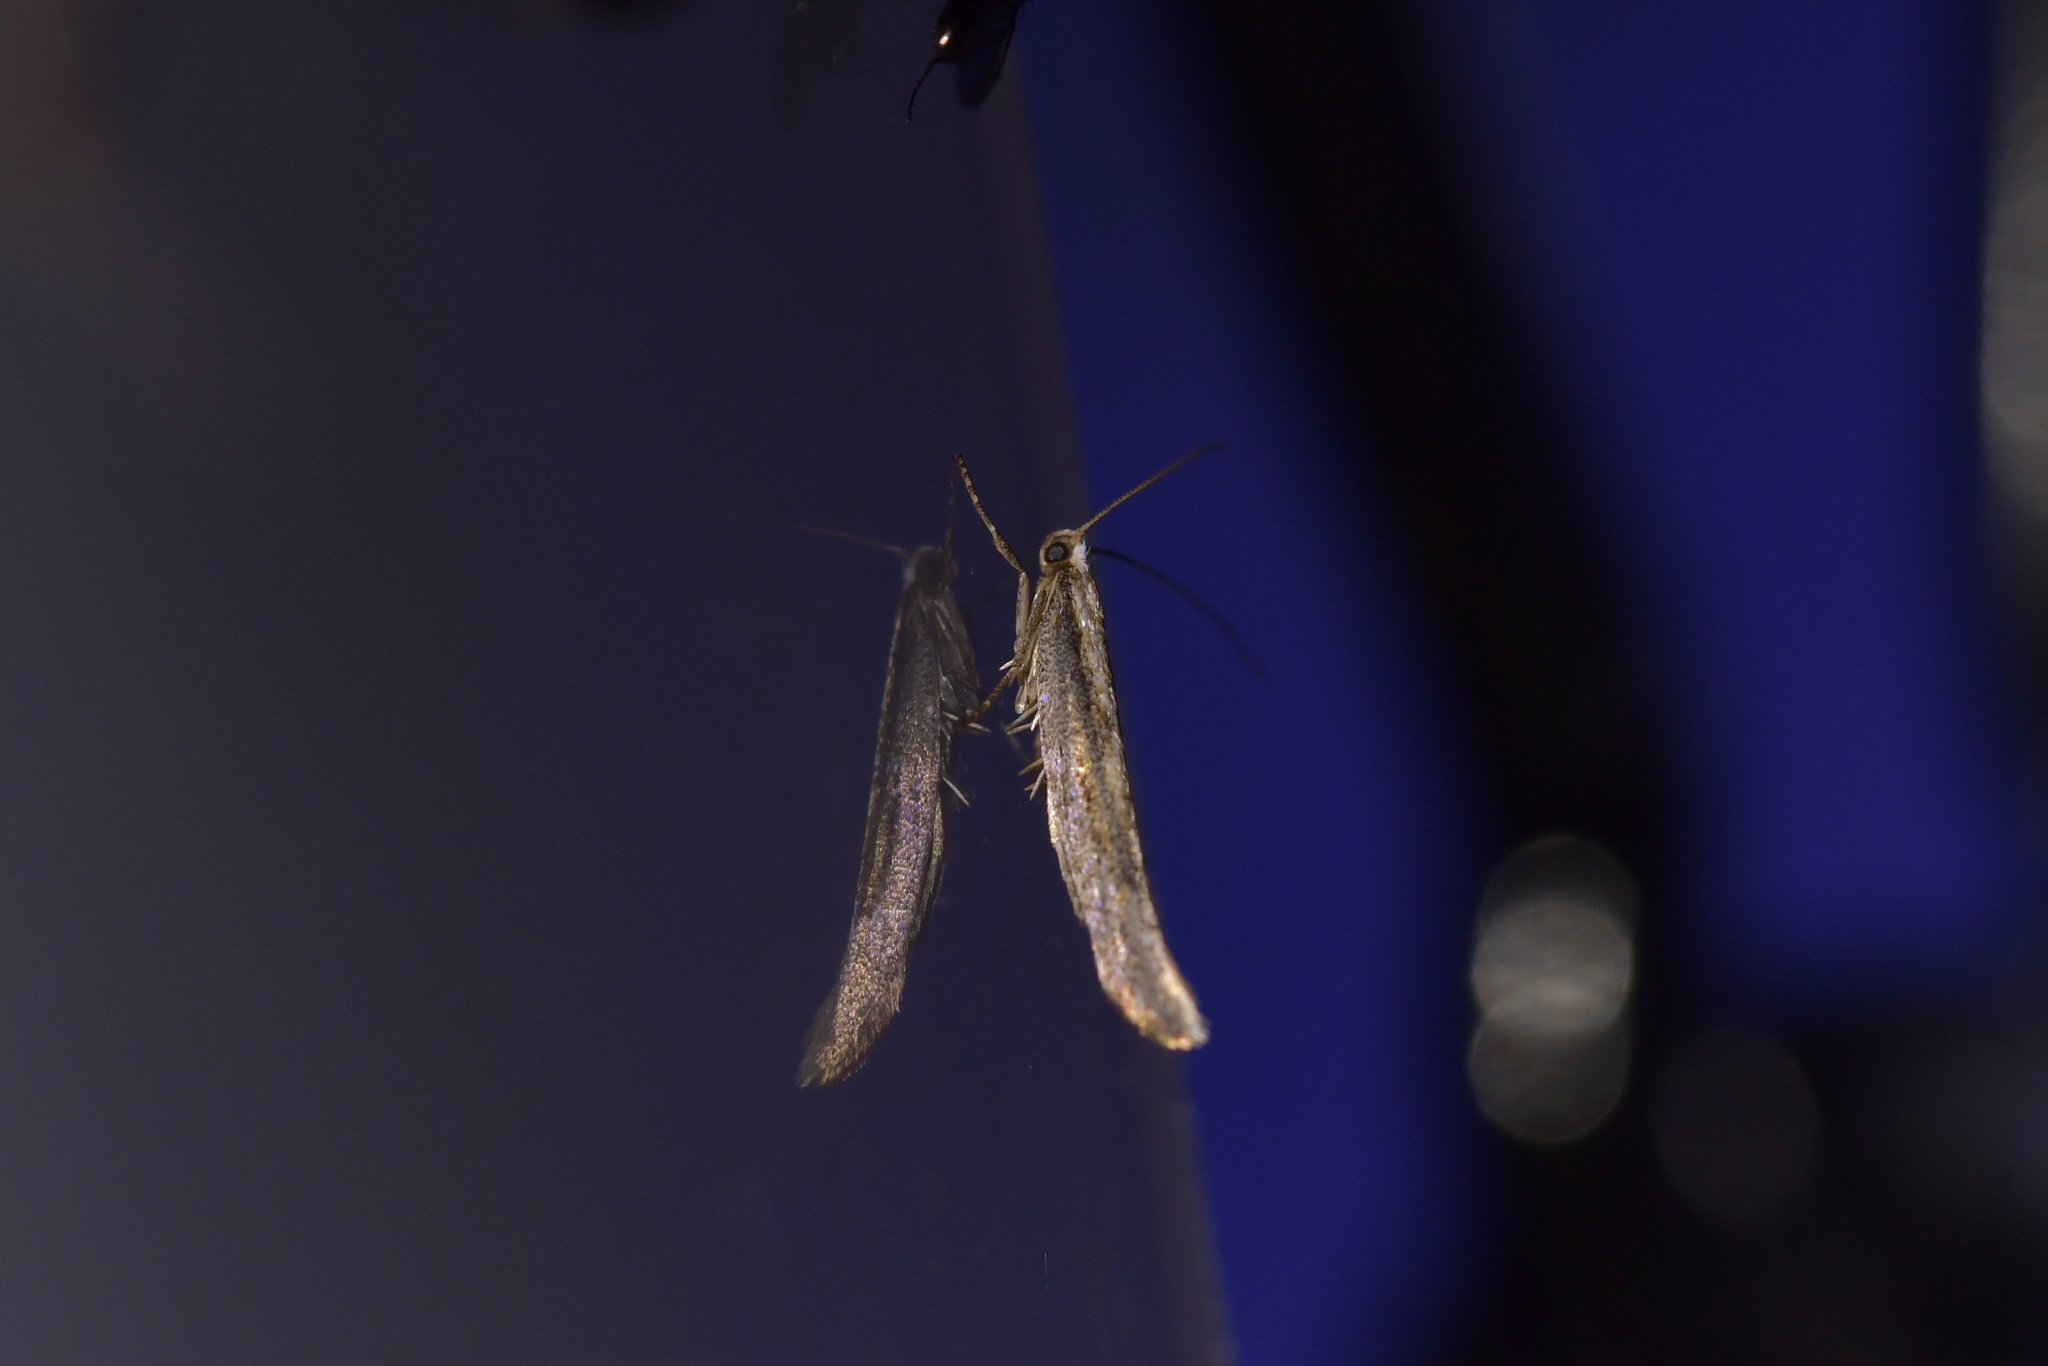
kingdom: Animalia
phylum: Arthropoda
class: Insecta
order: Lepidoptera
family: Yponomeutidae
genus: Kessleria
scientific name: Kessleria copidota
